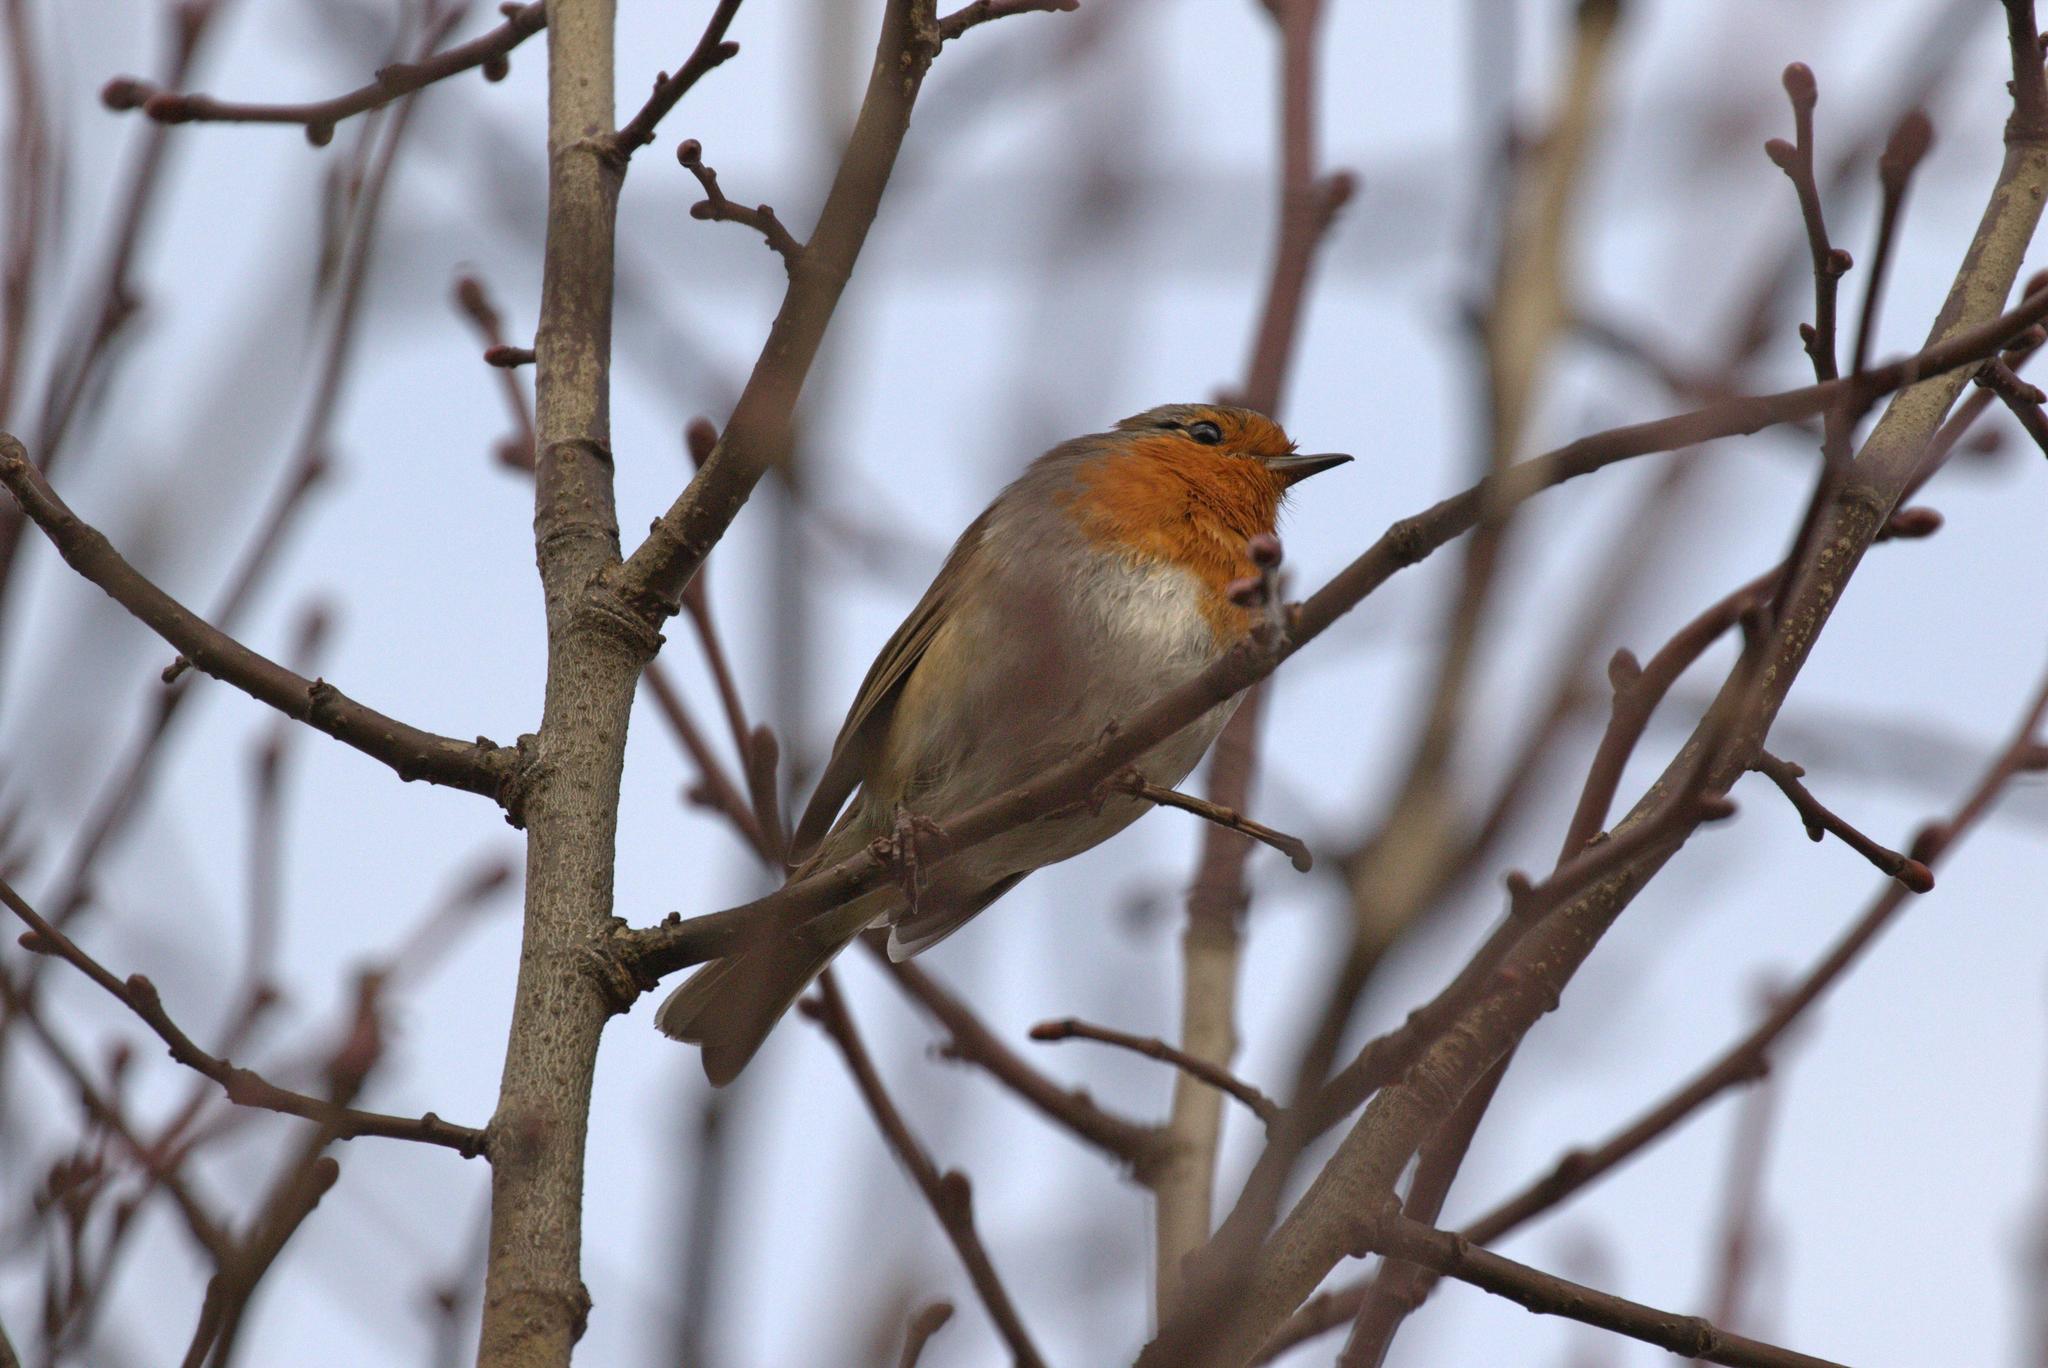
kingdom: Animalia
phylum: Chordata
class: Aves
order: Passeriformes
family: Muscicapidae
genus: Erithacus
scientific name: Erithacus rubecula
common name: European robin
